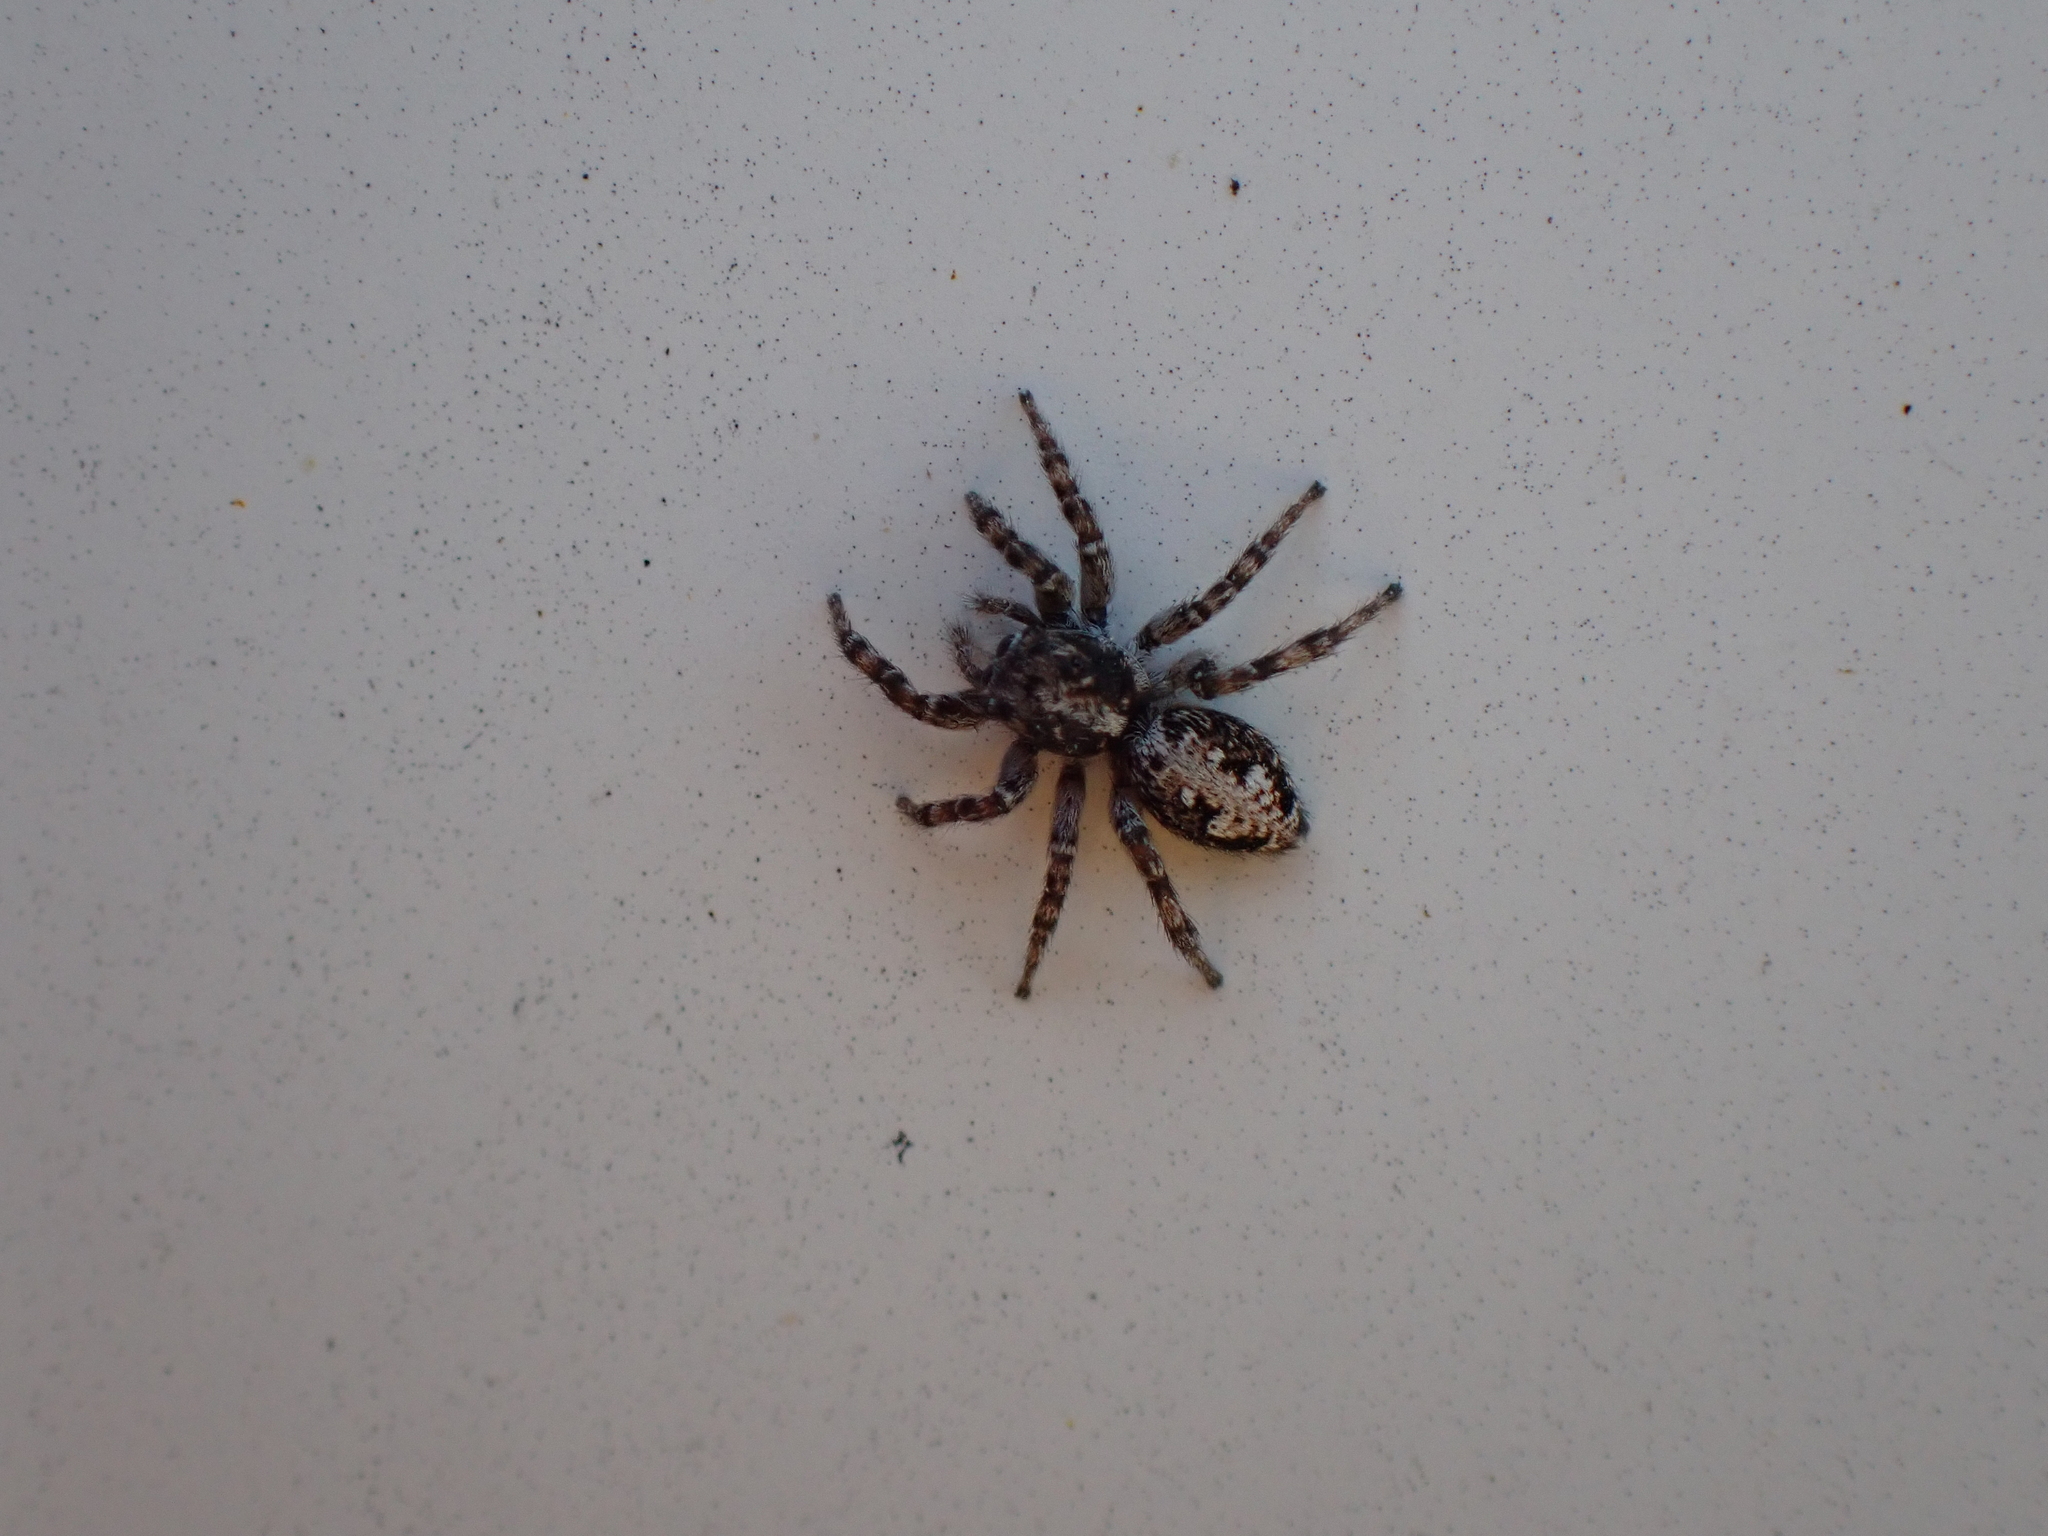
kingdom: Animalia
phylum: Arthropoda
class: Arachnida
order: Araneae
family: Salticidae
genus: Attulus
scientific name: Attulus terebratus
